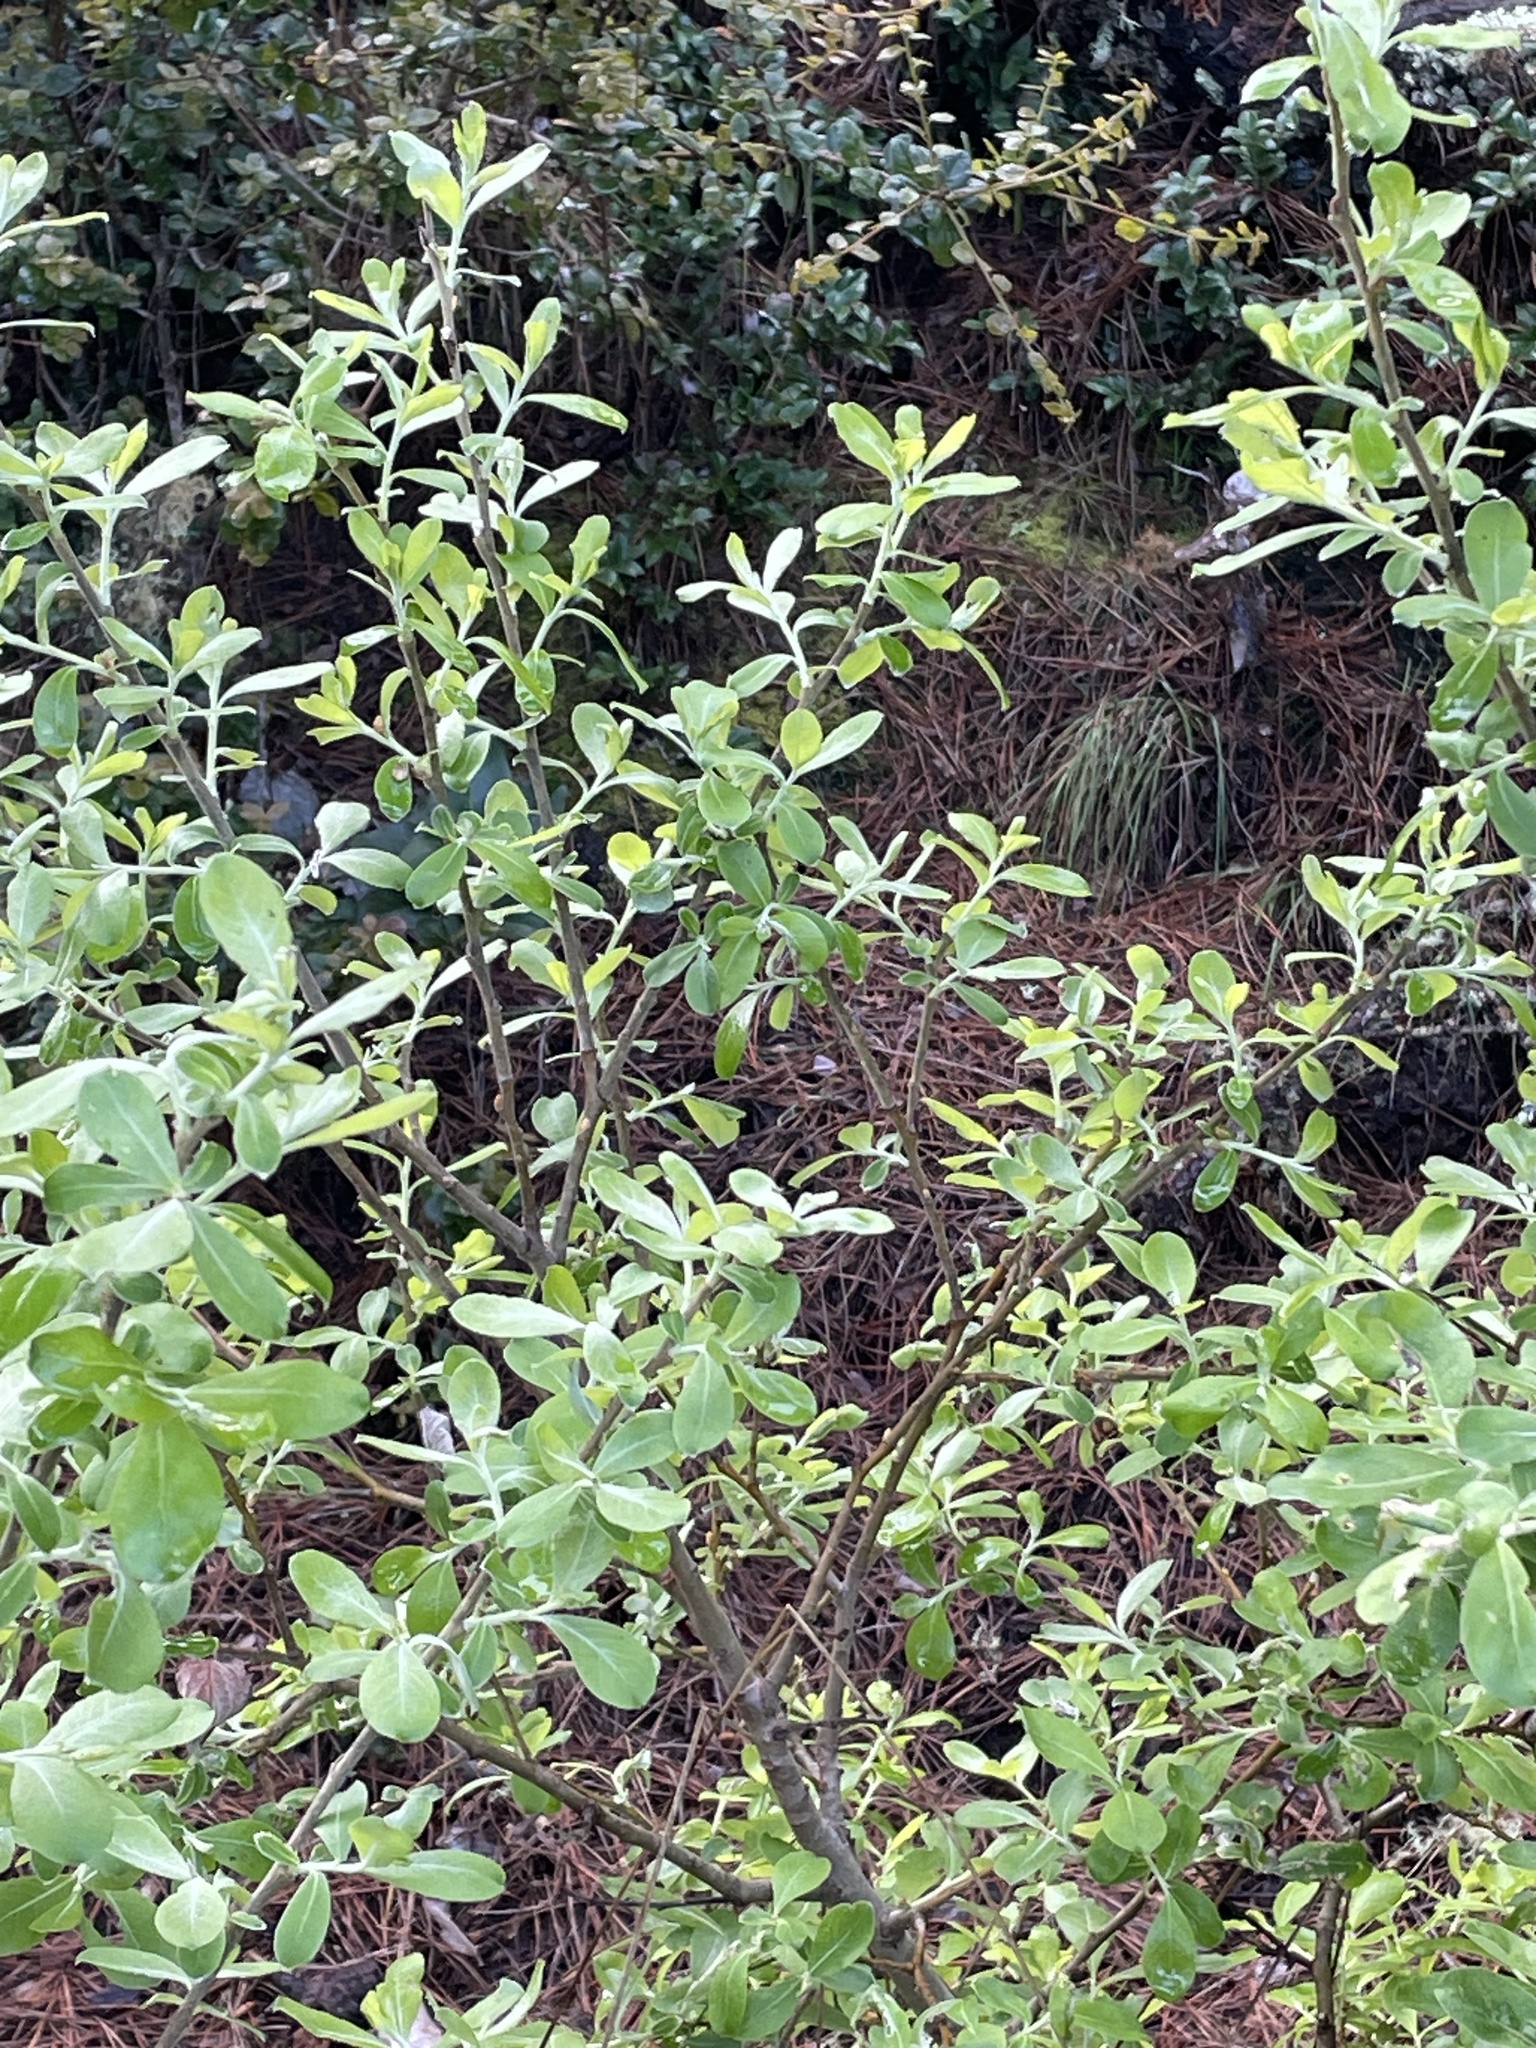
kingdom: Plantae
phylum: Tracheophyta
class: Magnoliopsida
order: Malpighiales
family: Salicaceae
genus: Salix
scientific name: Salix scouleriana
